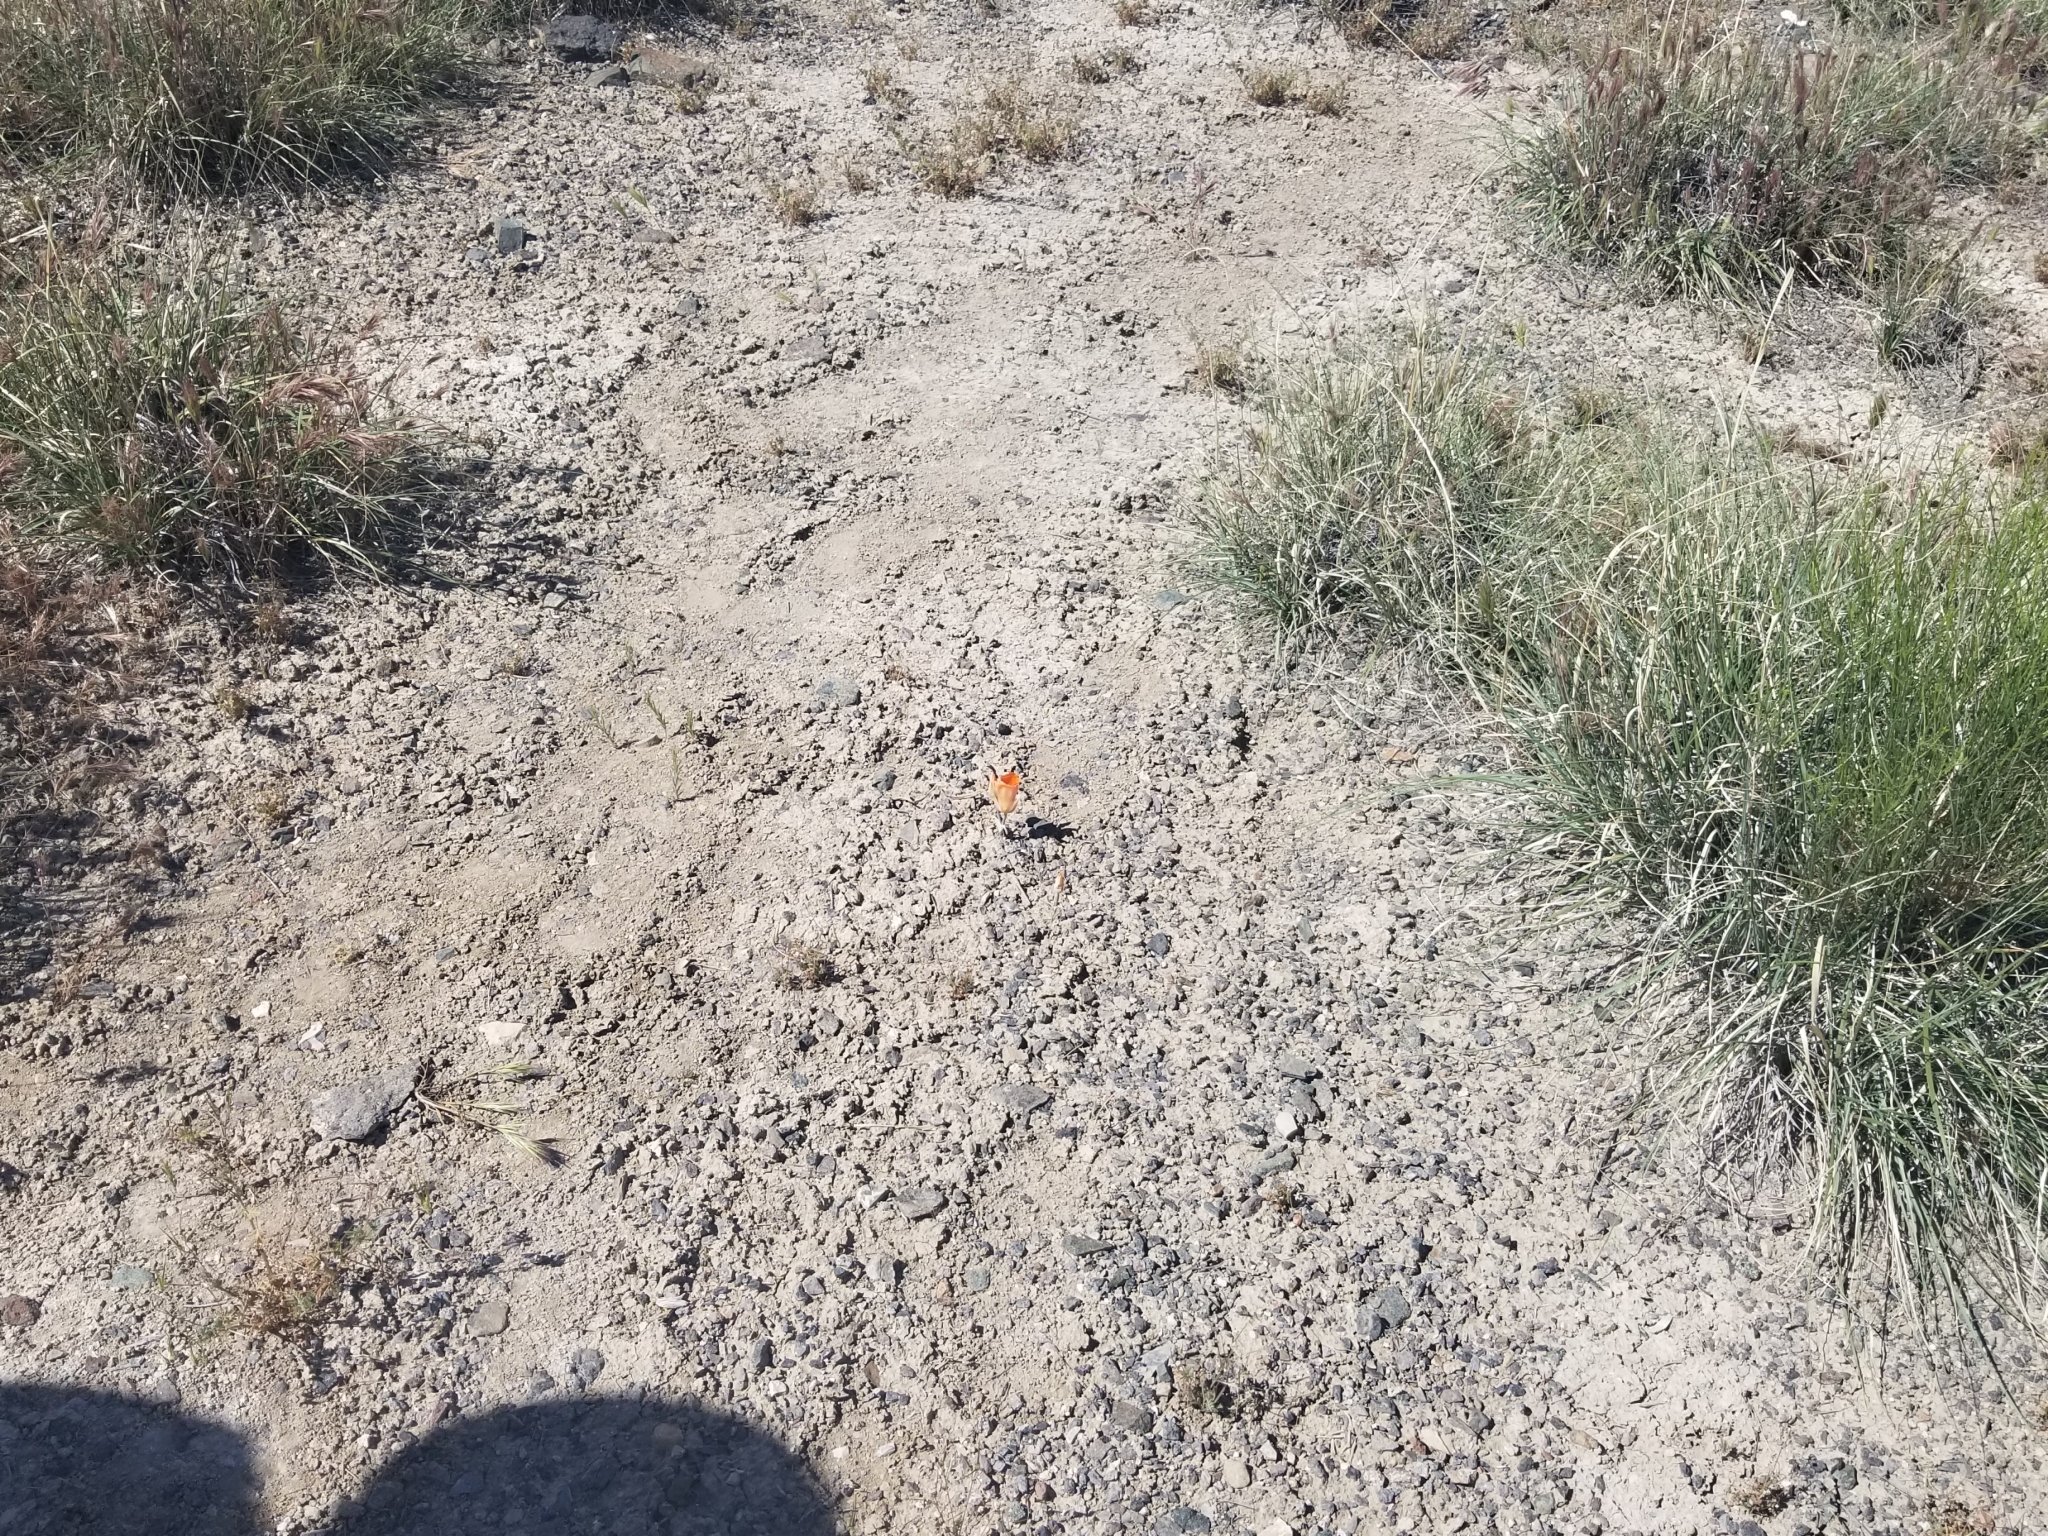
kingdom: Plantae
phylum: Tracheophyta
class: Liliopsida
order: Liliales
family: Liliaceae
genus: Calochortus
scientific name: Calochortus kennedyi
